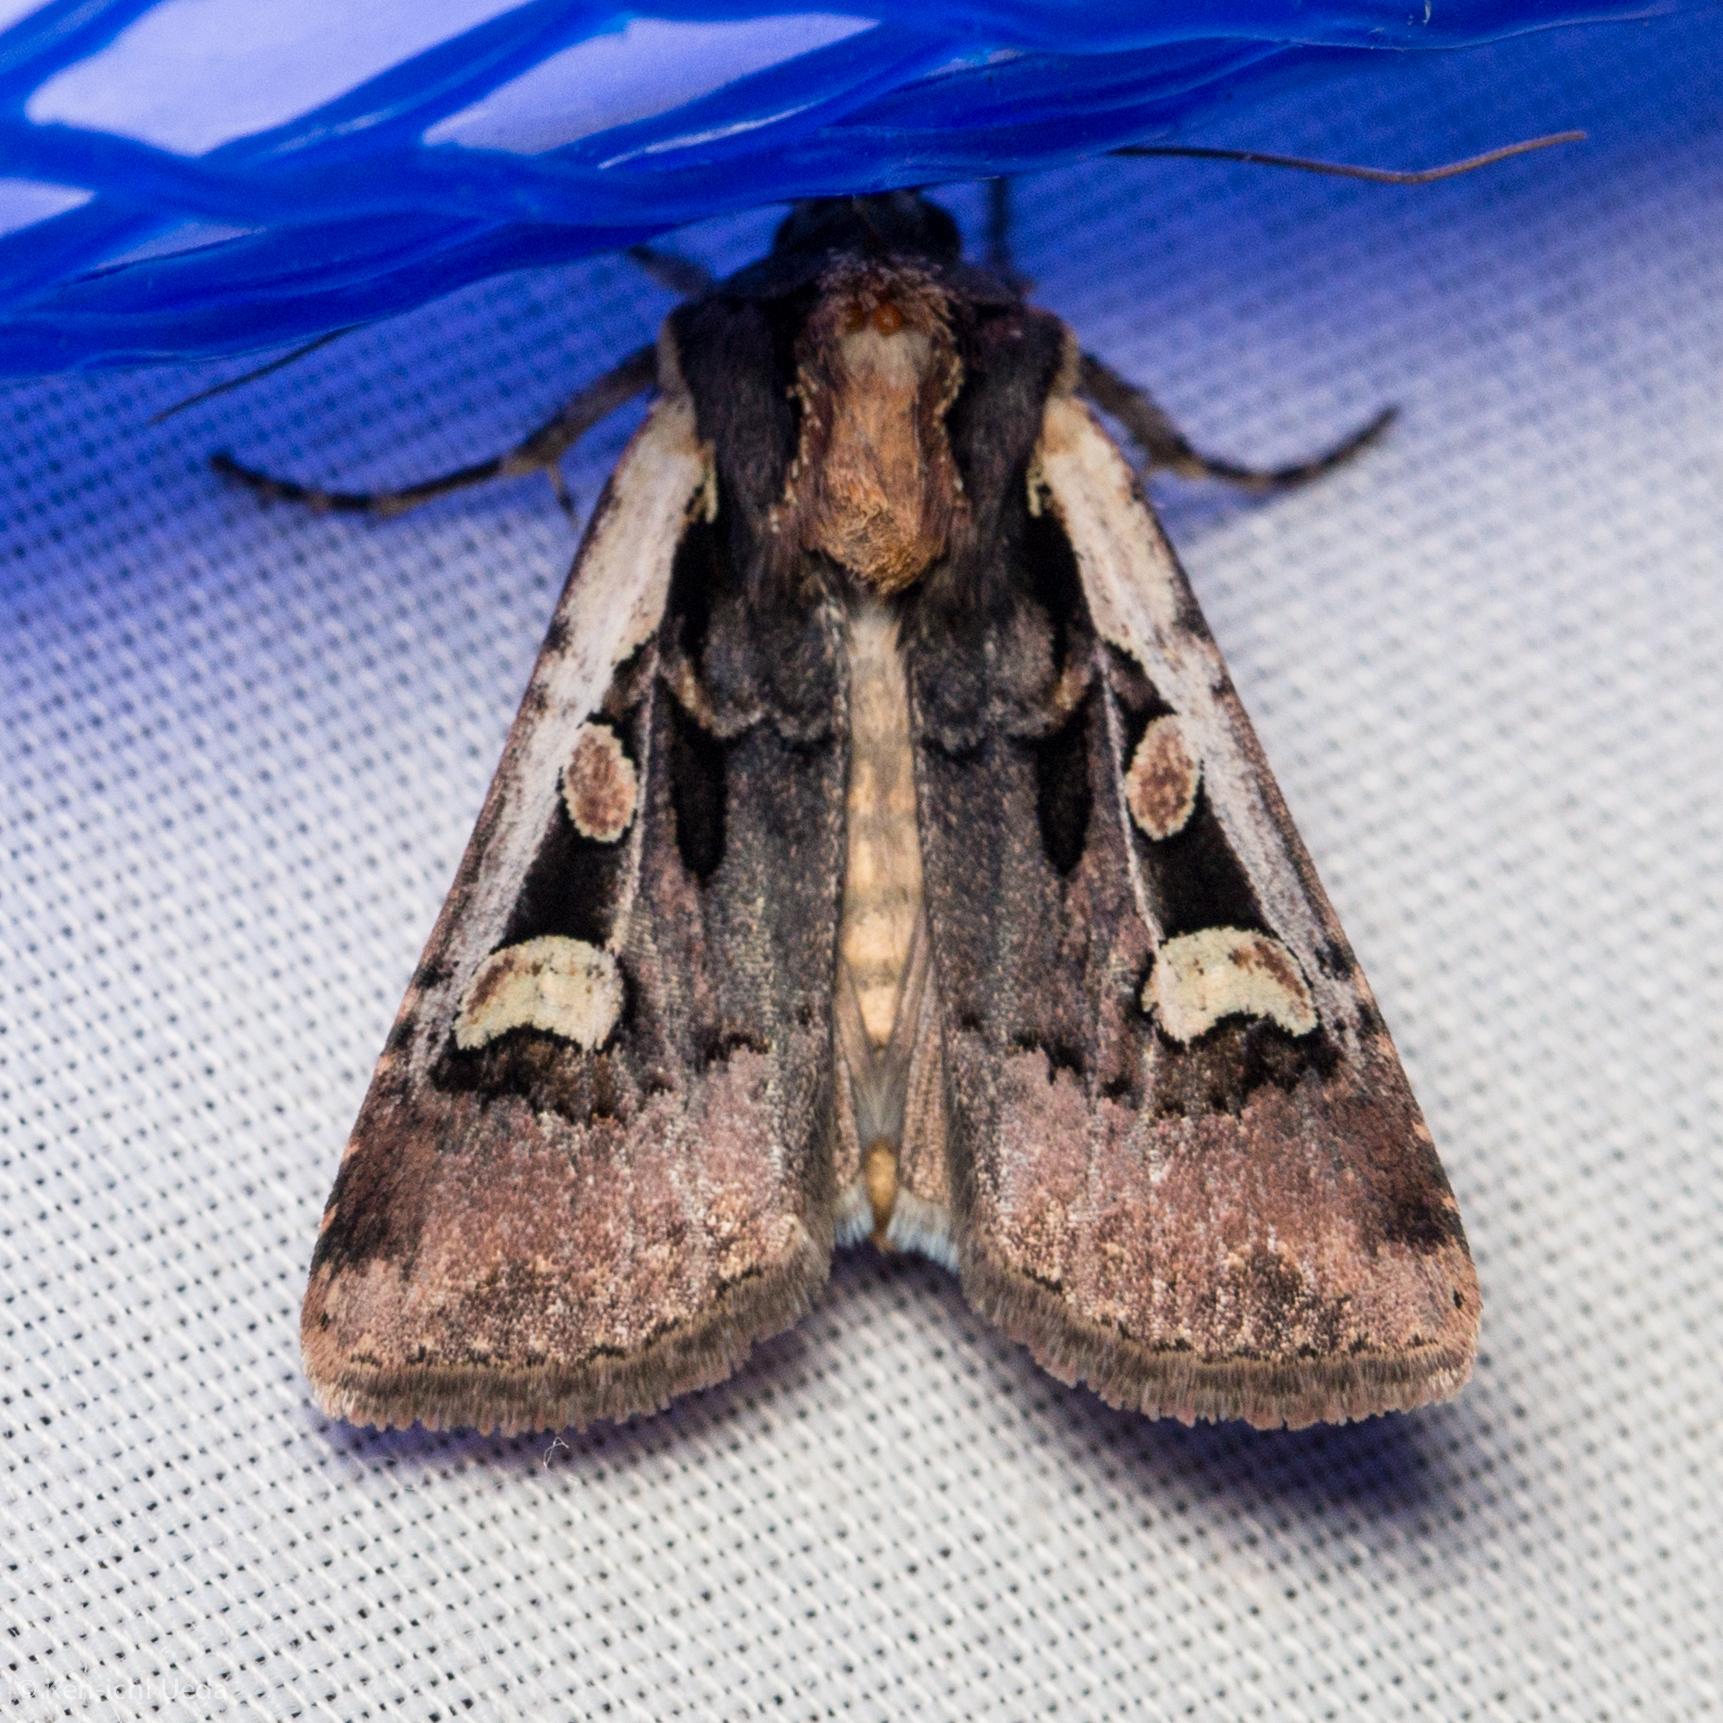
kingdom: Animalia
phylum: Arthropoda
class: Insecta
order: Lepidoptera
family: Noctuidae
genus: Euxoa
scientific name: Euxoa obeliscoides
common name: Obelisk dart moth
